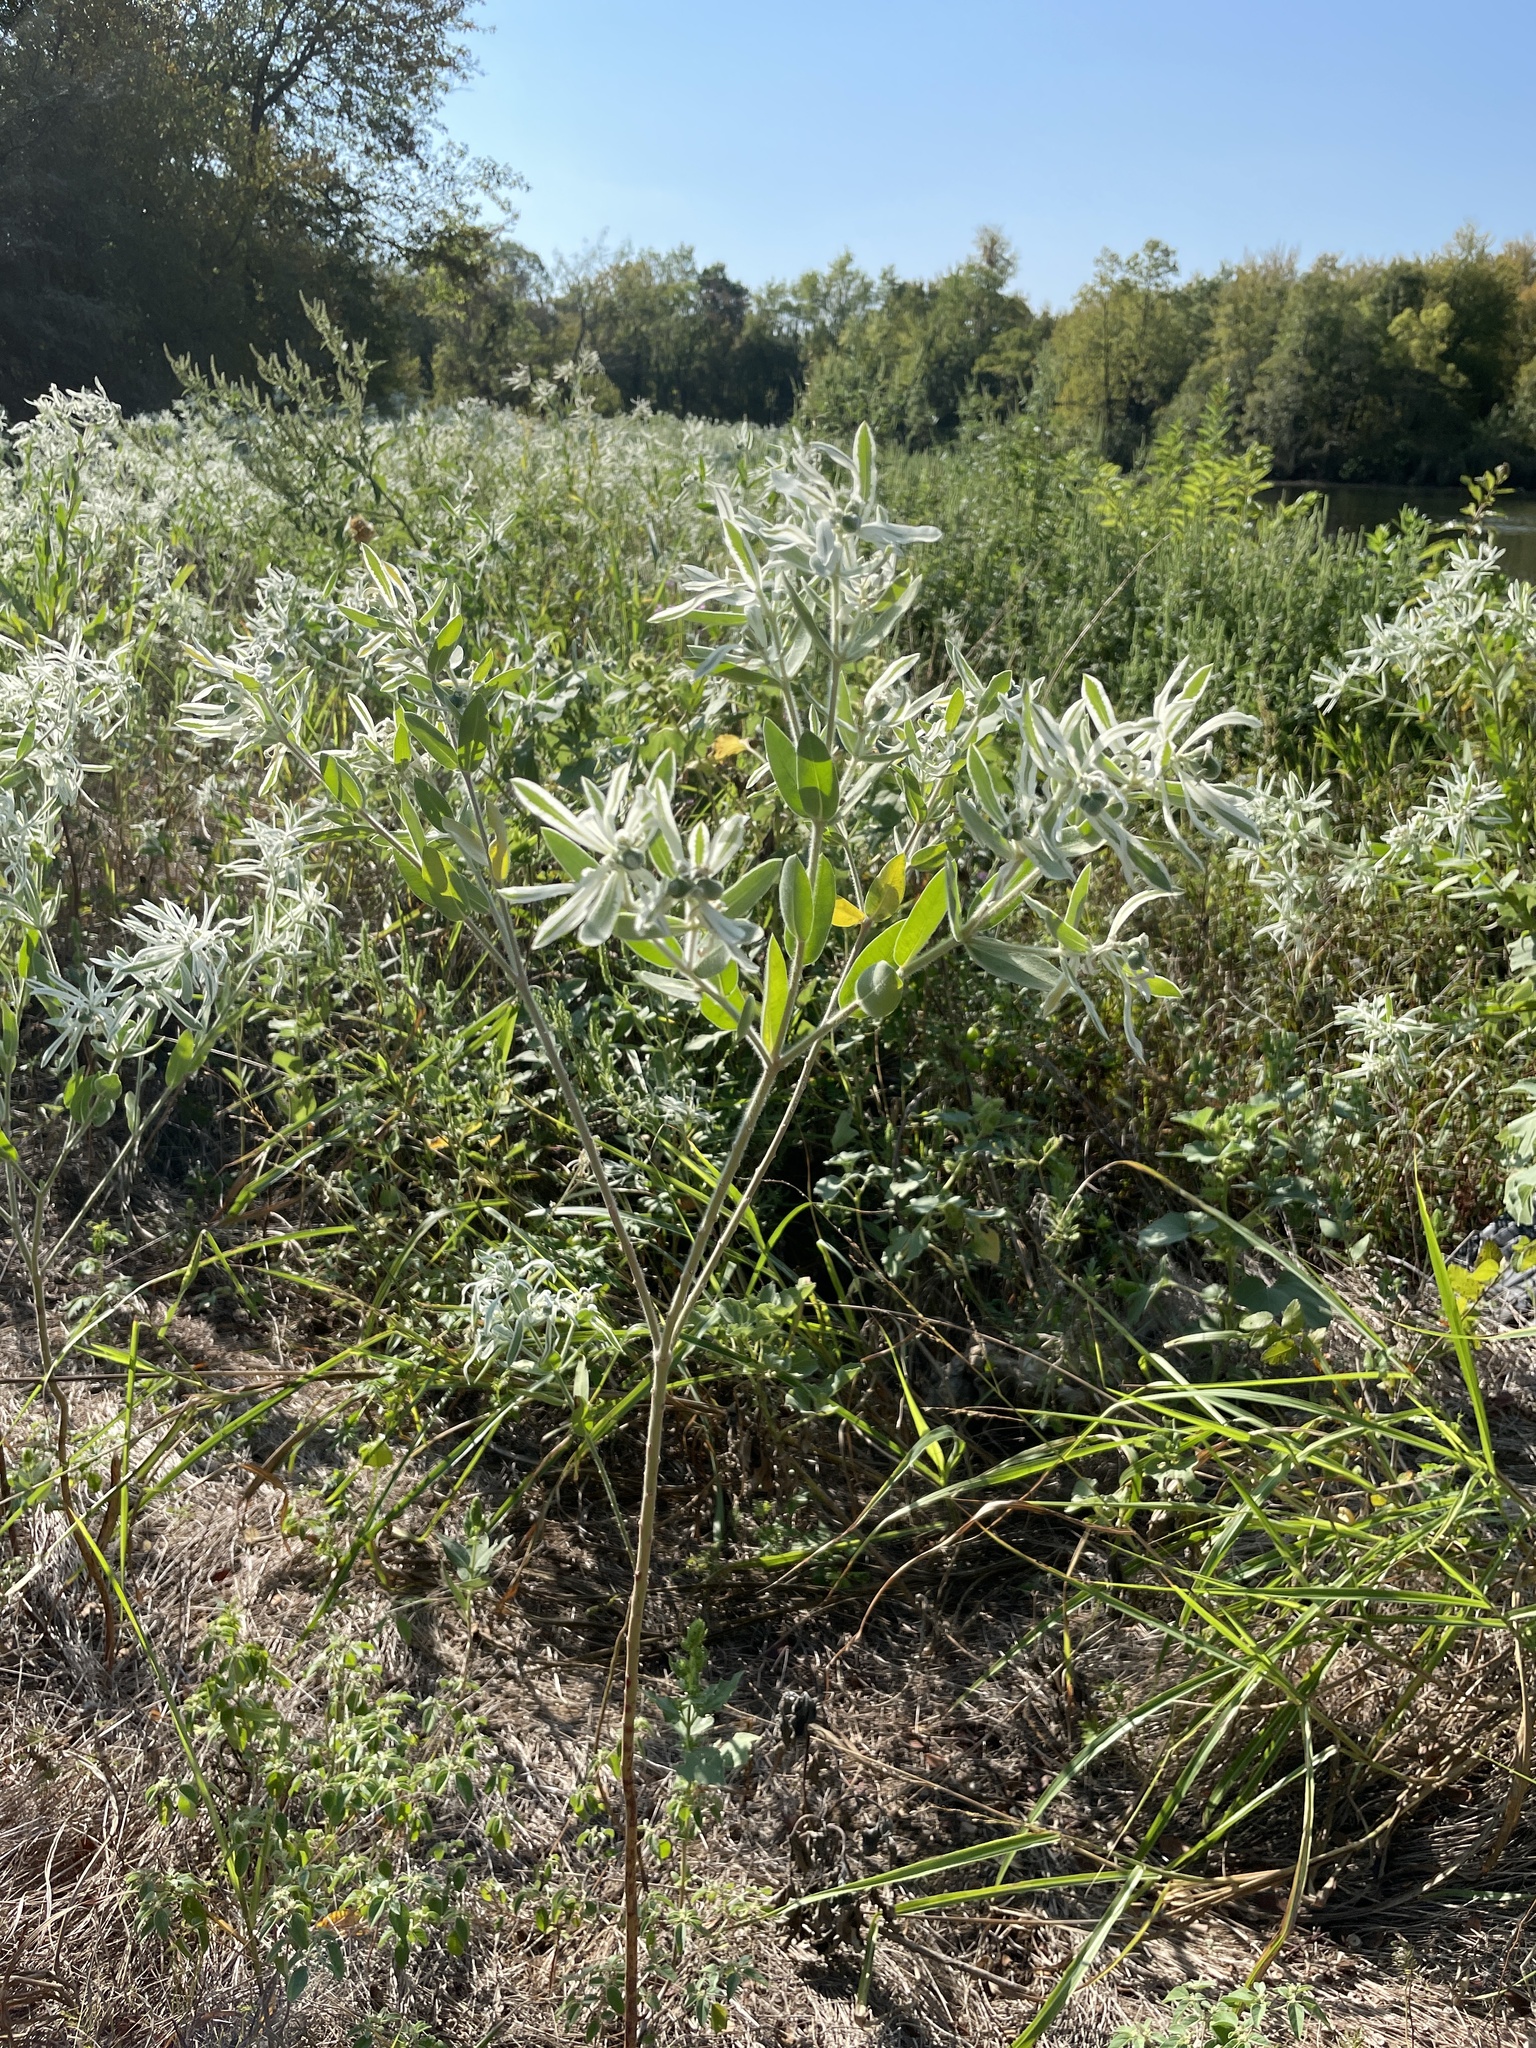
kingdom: Plantae
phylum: Tracheophyta
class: Magnoliopsida
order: Malpighiales
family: Euphorbiaceae
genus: Euphorbia
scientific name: Euphorbia bicolor
